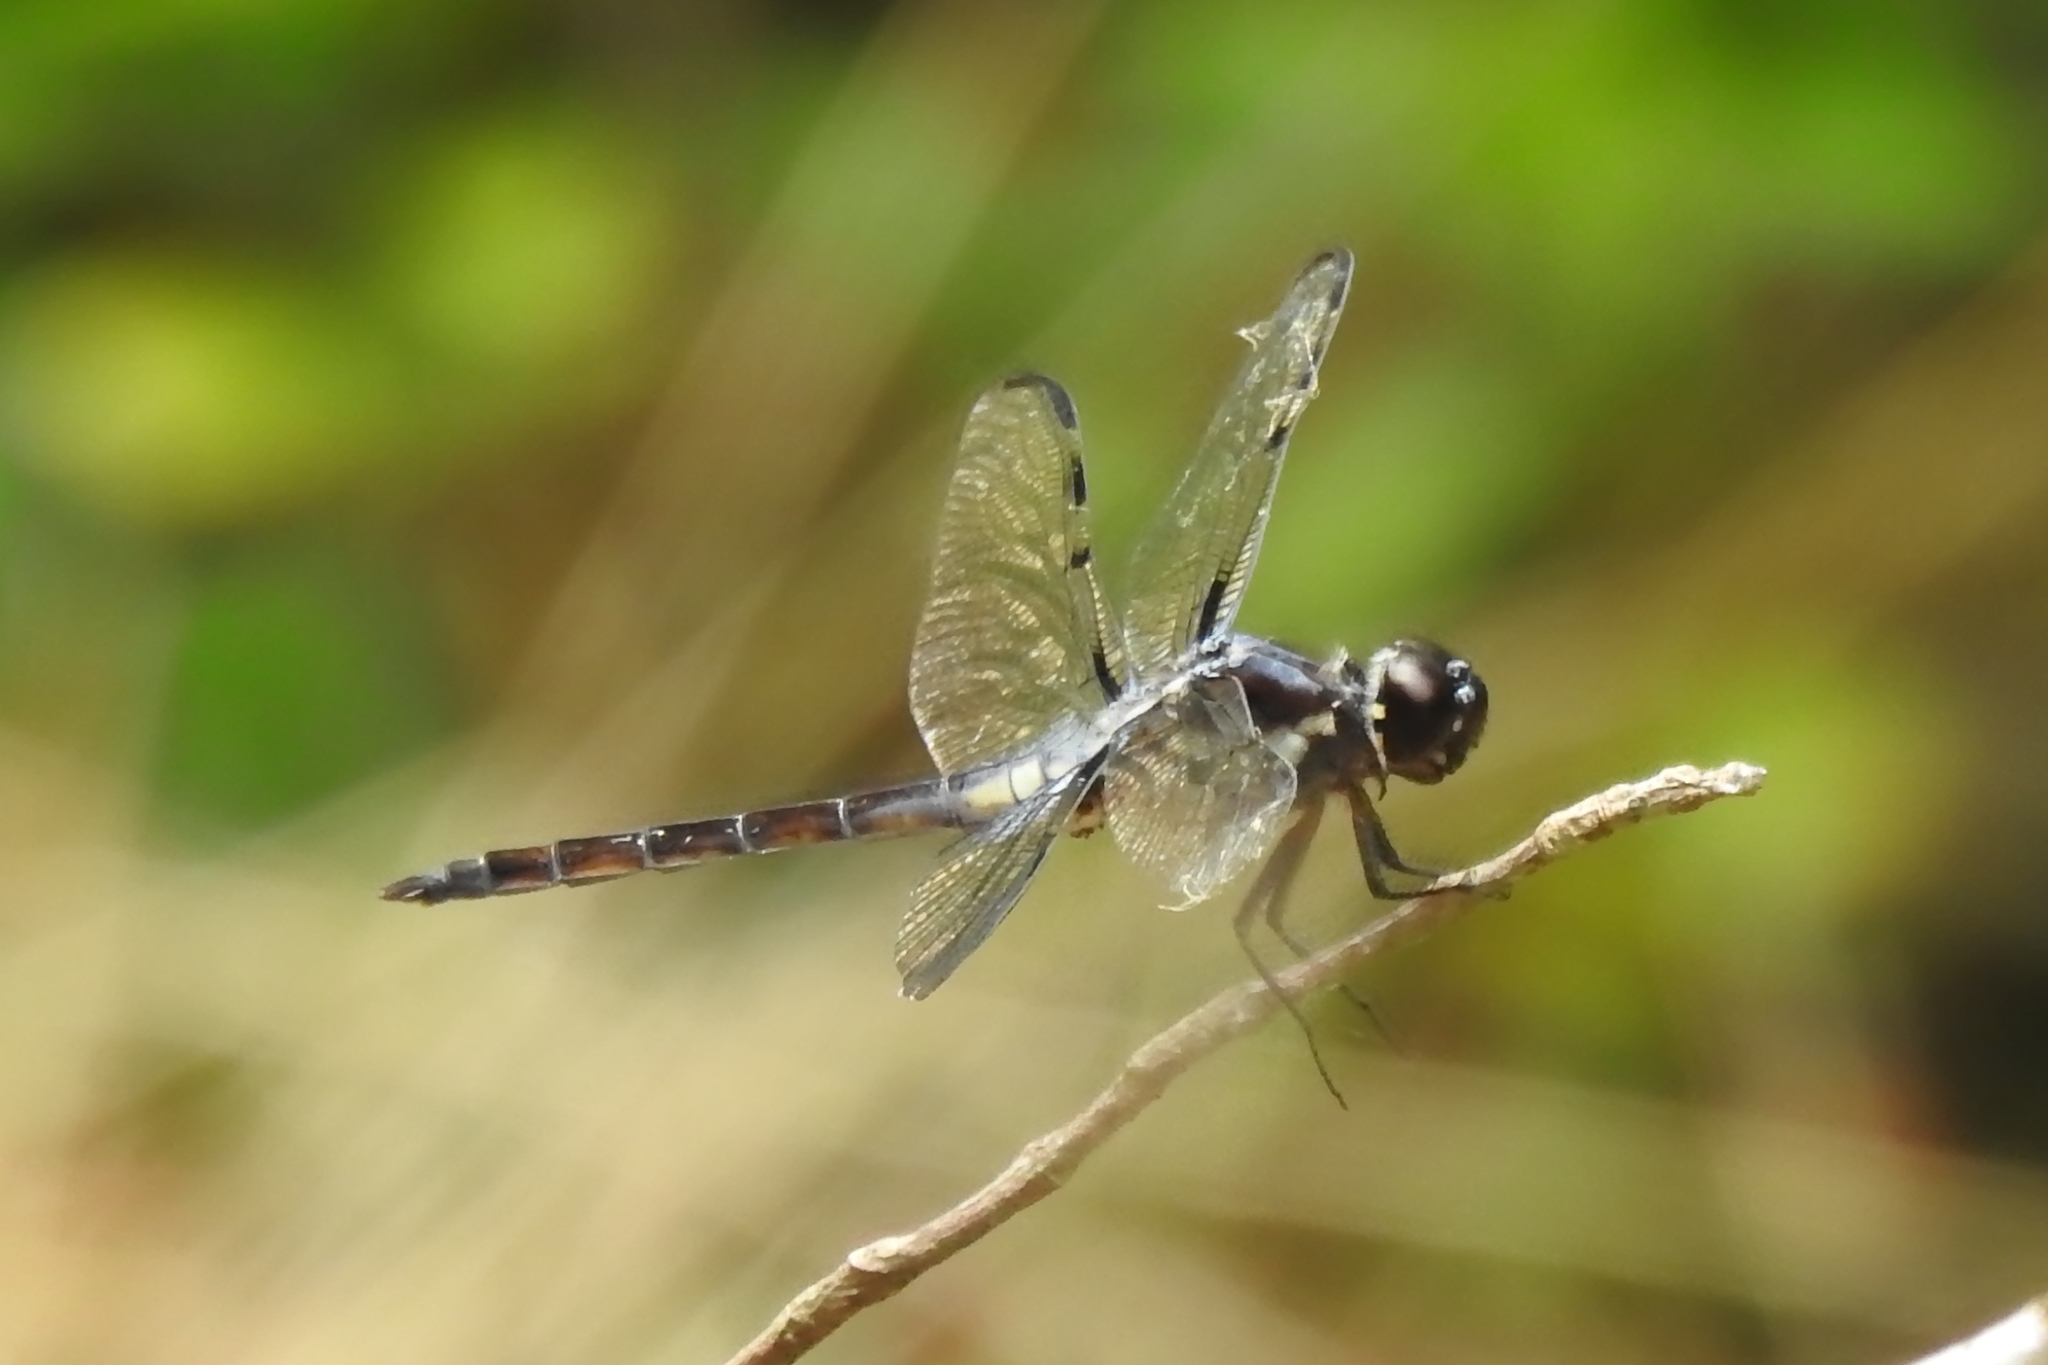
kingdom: Animalia
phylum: Arthropoda
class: Insecta
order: Odonata
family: Libellulidae
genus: Libellula
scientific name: Libellula axilena
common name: Bar-winged skimmer
